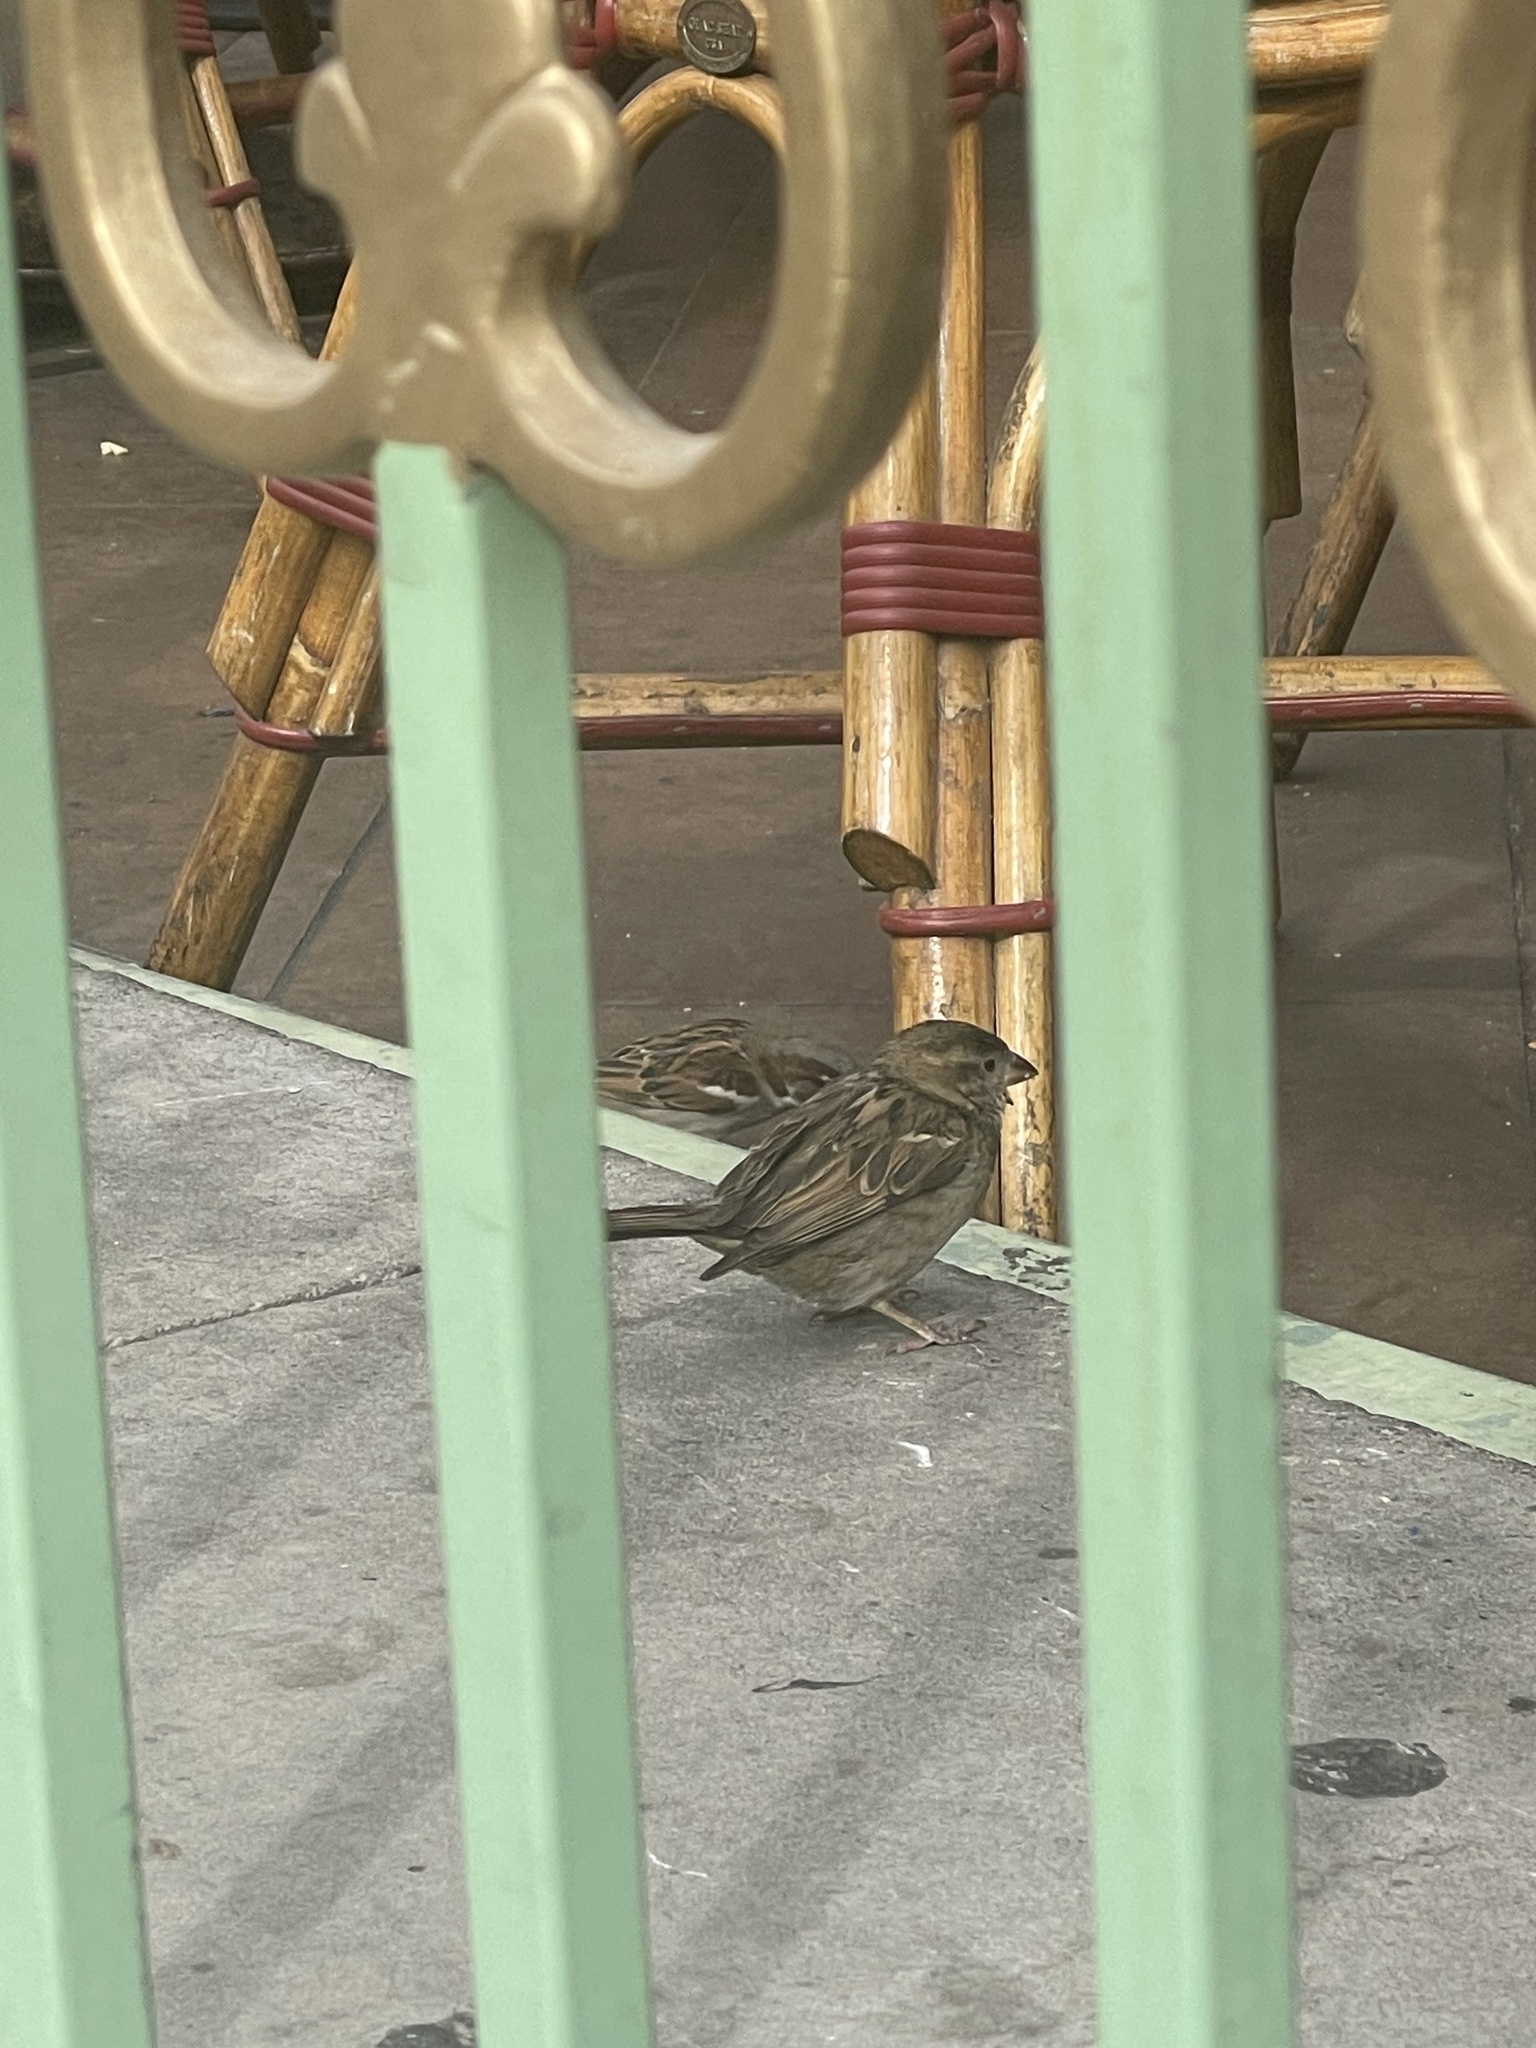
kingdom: Animalia
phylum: Chordata
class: Aves
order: Passeriformes
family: Passeridae
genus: Passer
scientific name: Passer domesticus
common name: House sparrow
